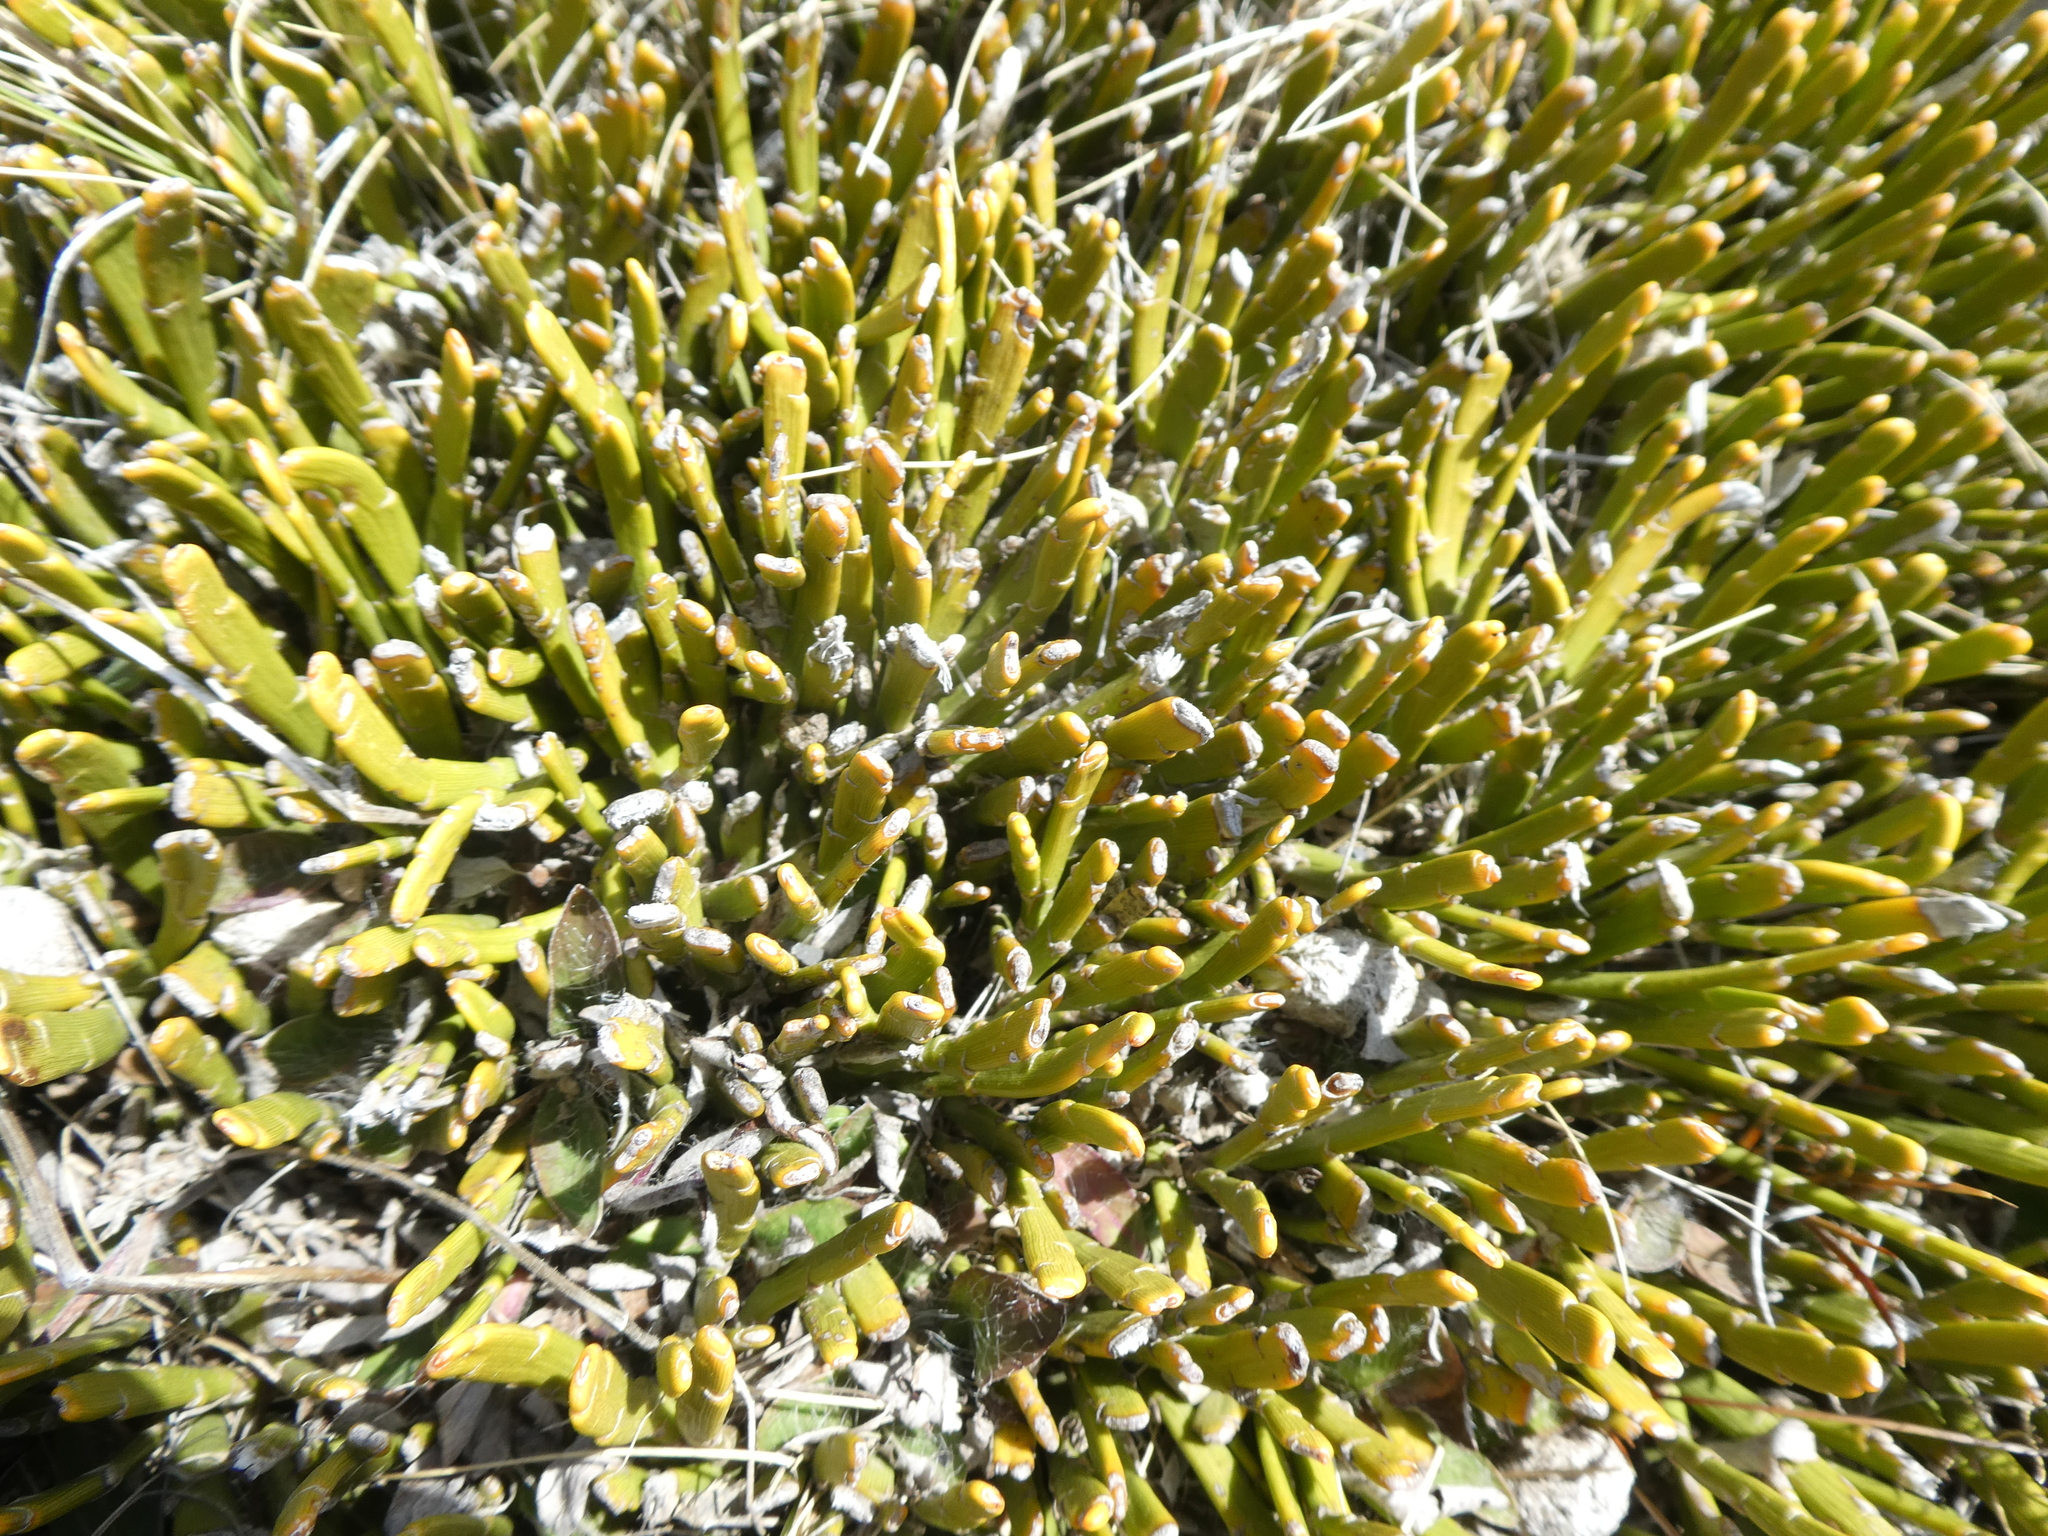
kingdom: Plantae
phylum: Tracheophyta
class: Magnoliopsida
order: Fabales
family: Fabaceae
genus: Carmichaelia
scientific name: Carmichaelia monroi
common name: Stout dwarf broom
